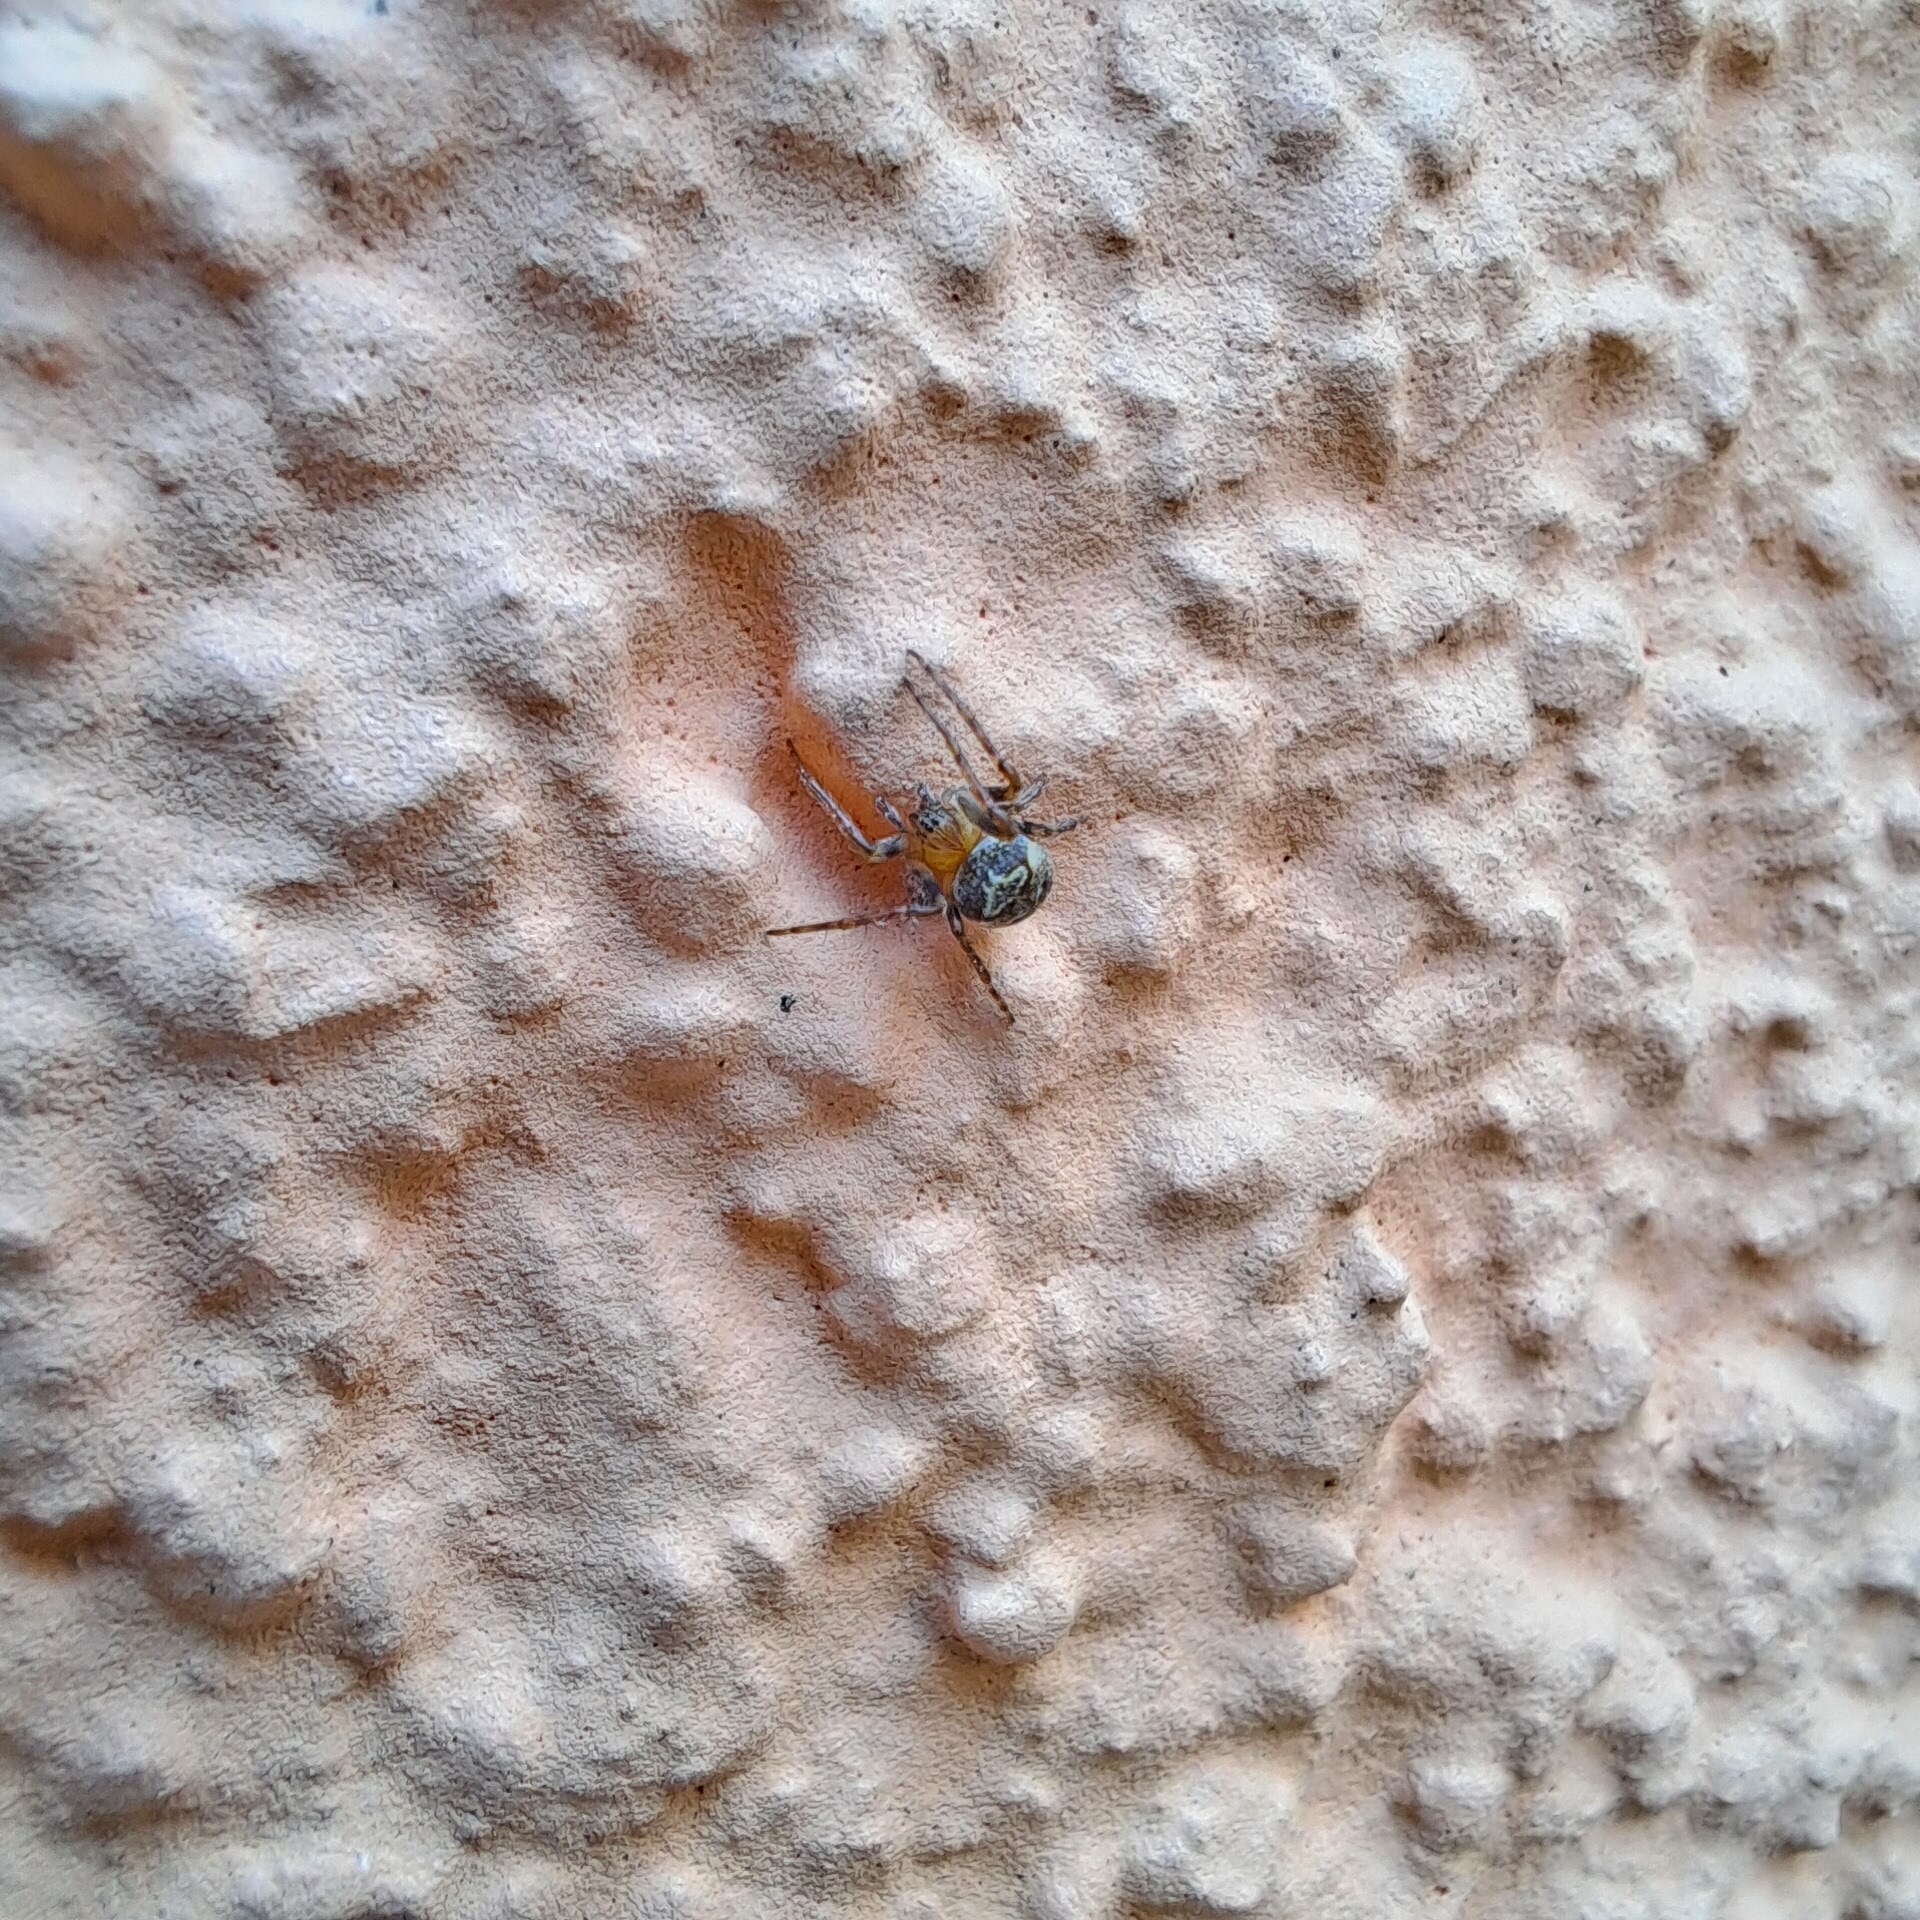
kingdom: Animalia
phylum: Arthropoda
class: Arachnida
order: Araneae
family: Araneidae
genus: Zilla
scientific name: Zilla diodia
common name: Zilla diodia
